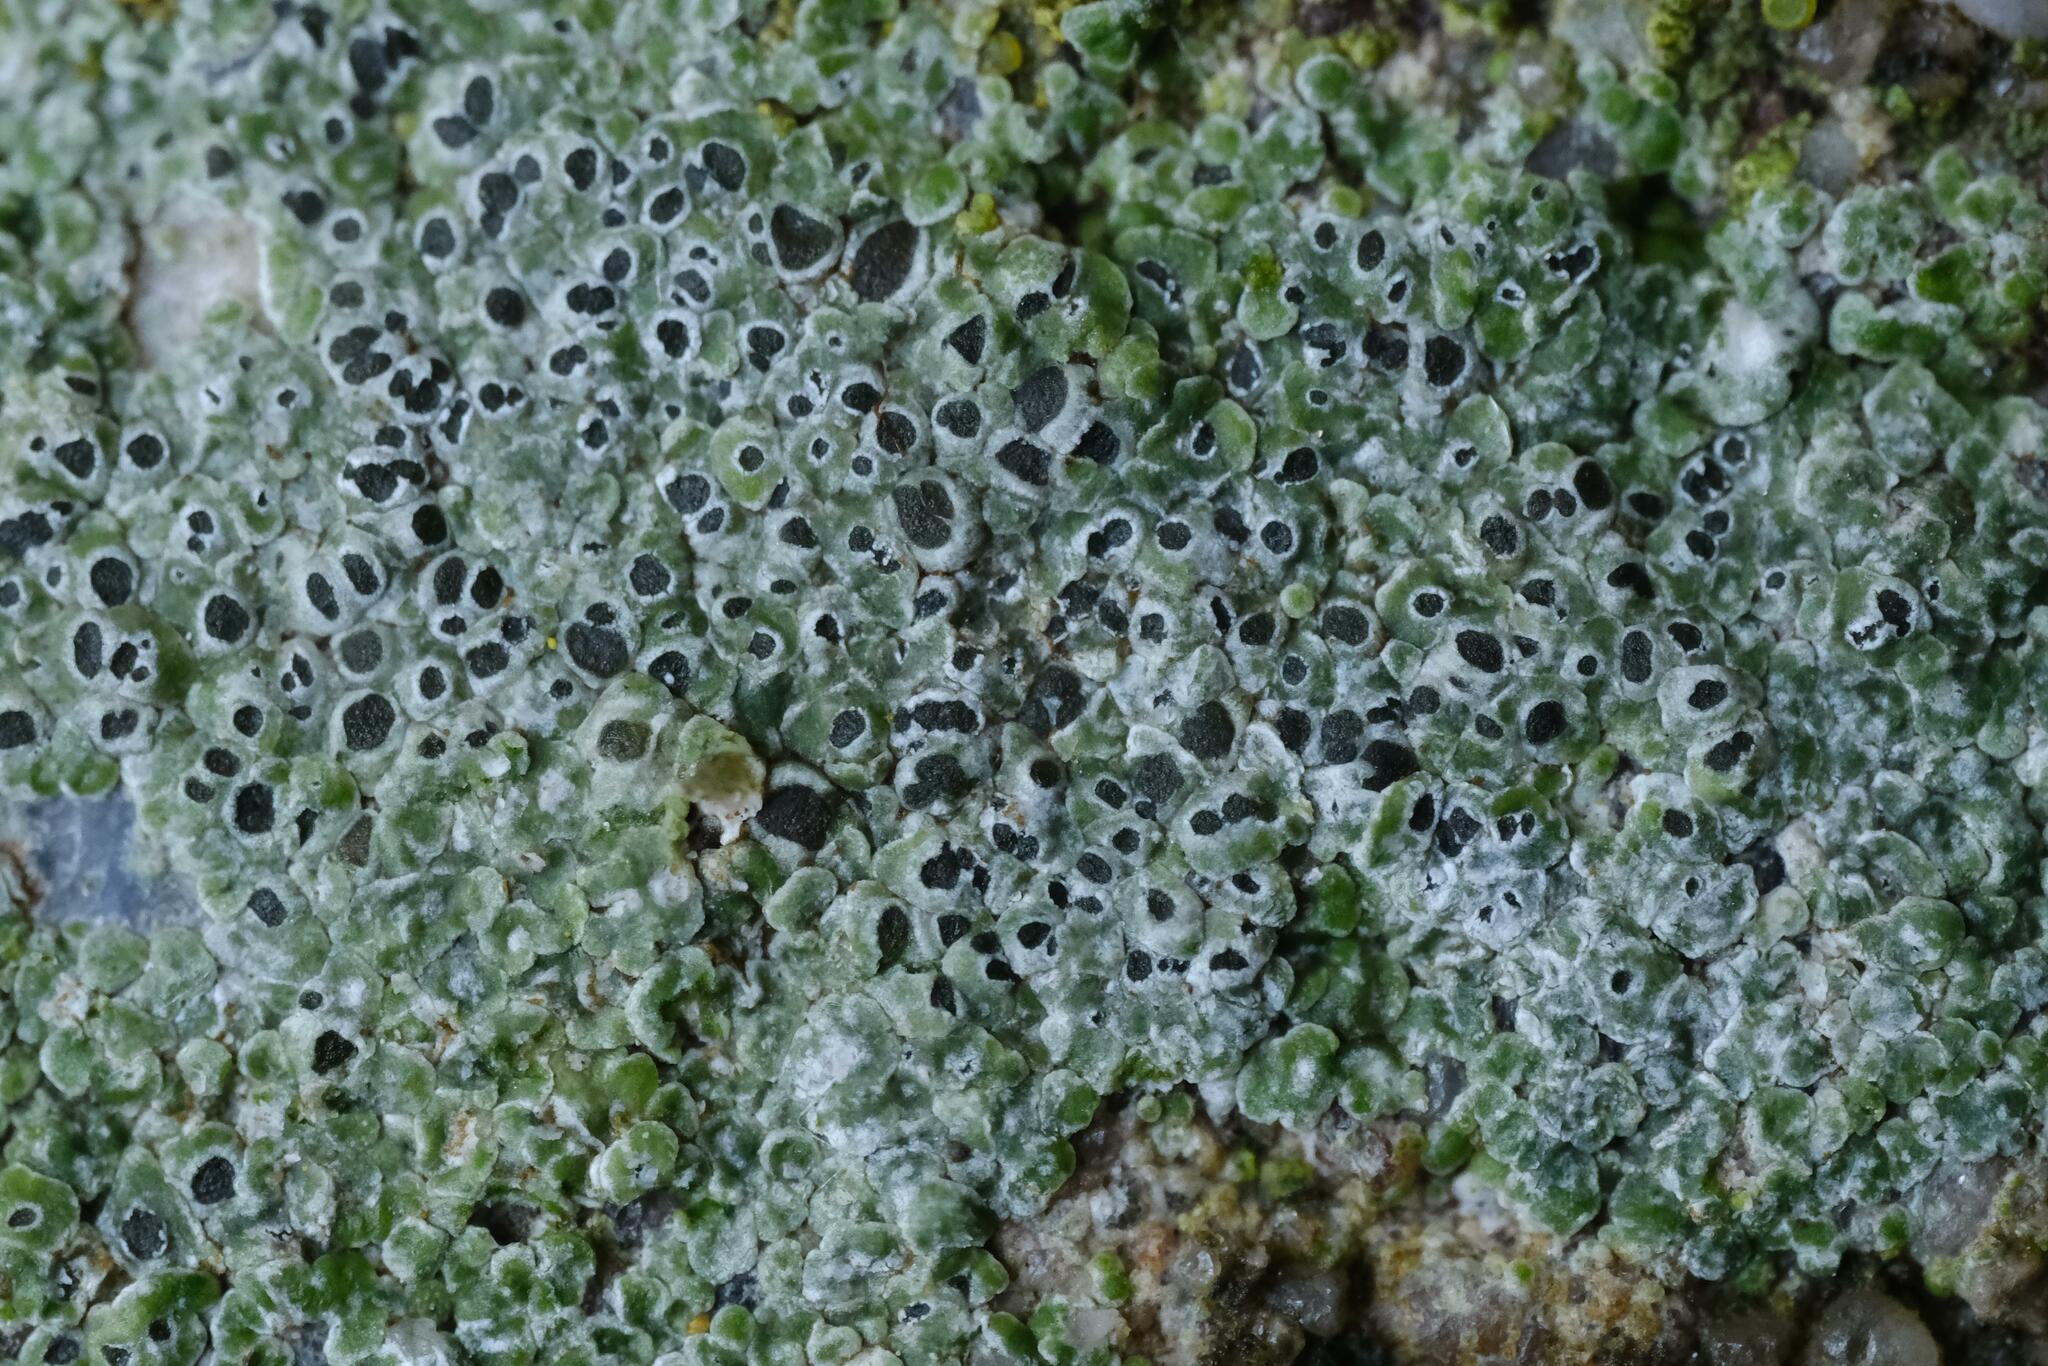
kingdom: Fungi
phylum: Ascomycota
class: Lecanoromycetes
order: Pertusariales
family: Megasporaceae
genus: Circinaria
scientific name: Circinaria contorta
